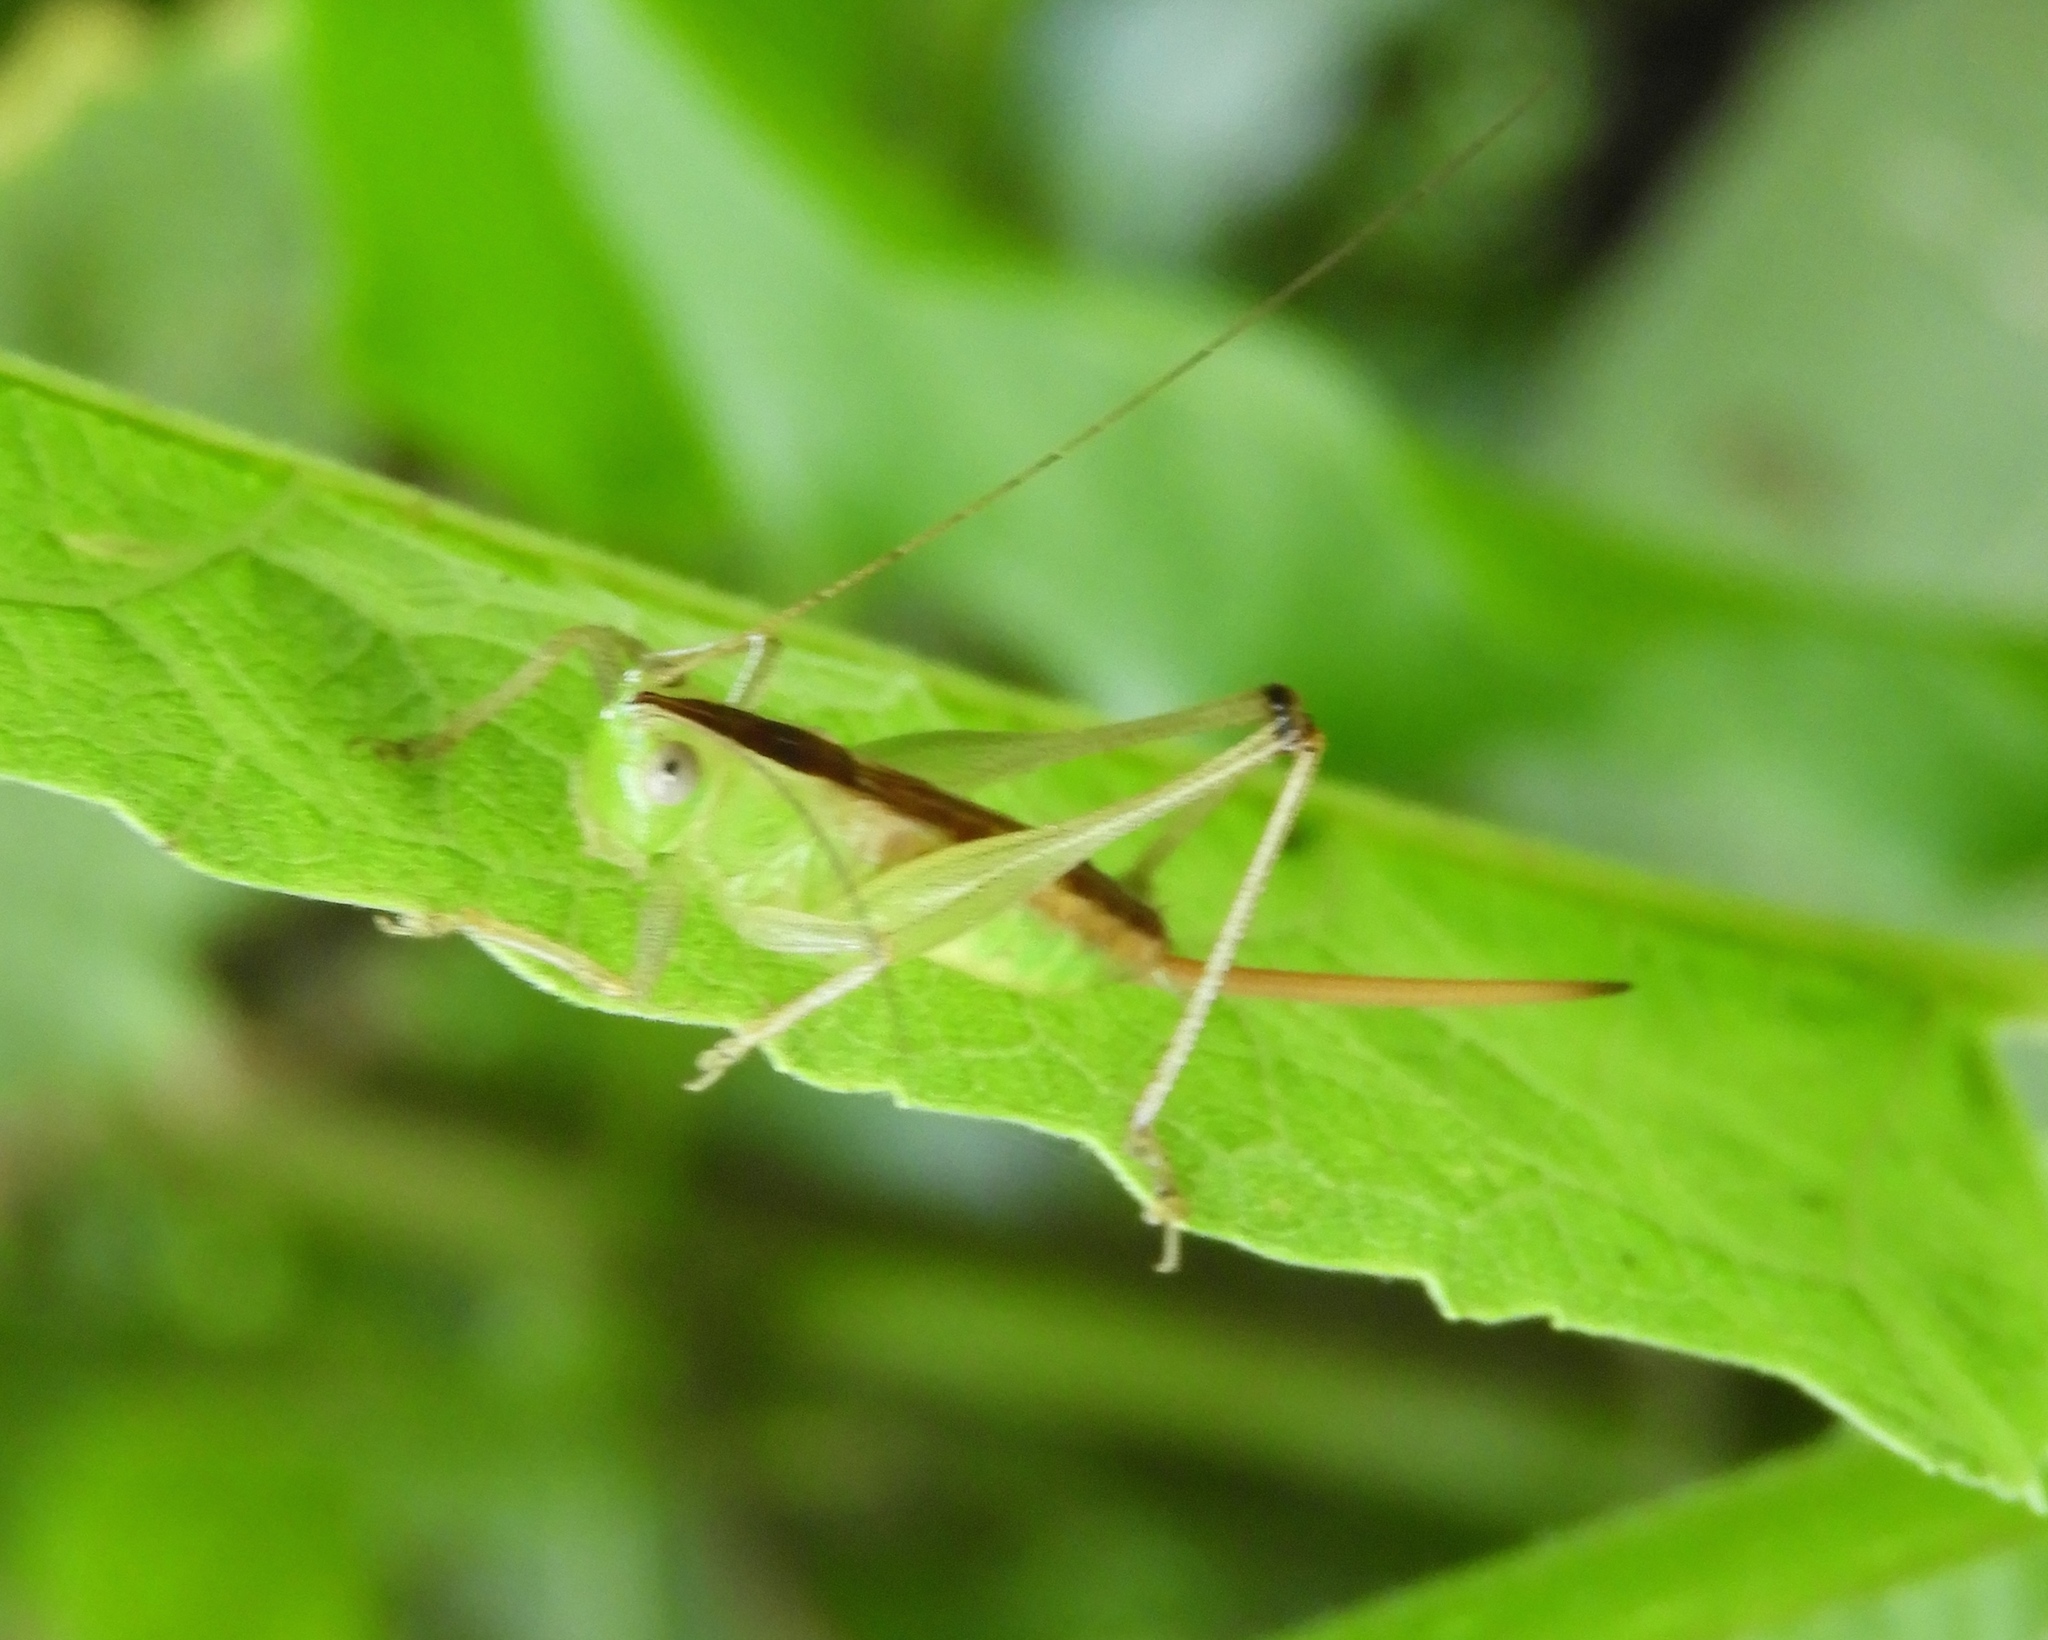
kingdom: Animalia
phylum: Arthropoda
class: Insecta
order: Orthoptera
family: Tettigoniidae
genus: Conocephalus
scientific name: Conocephalus
